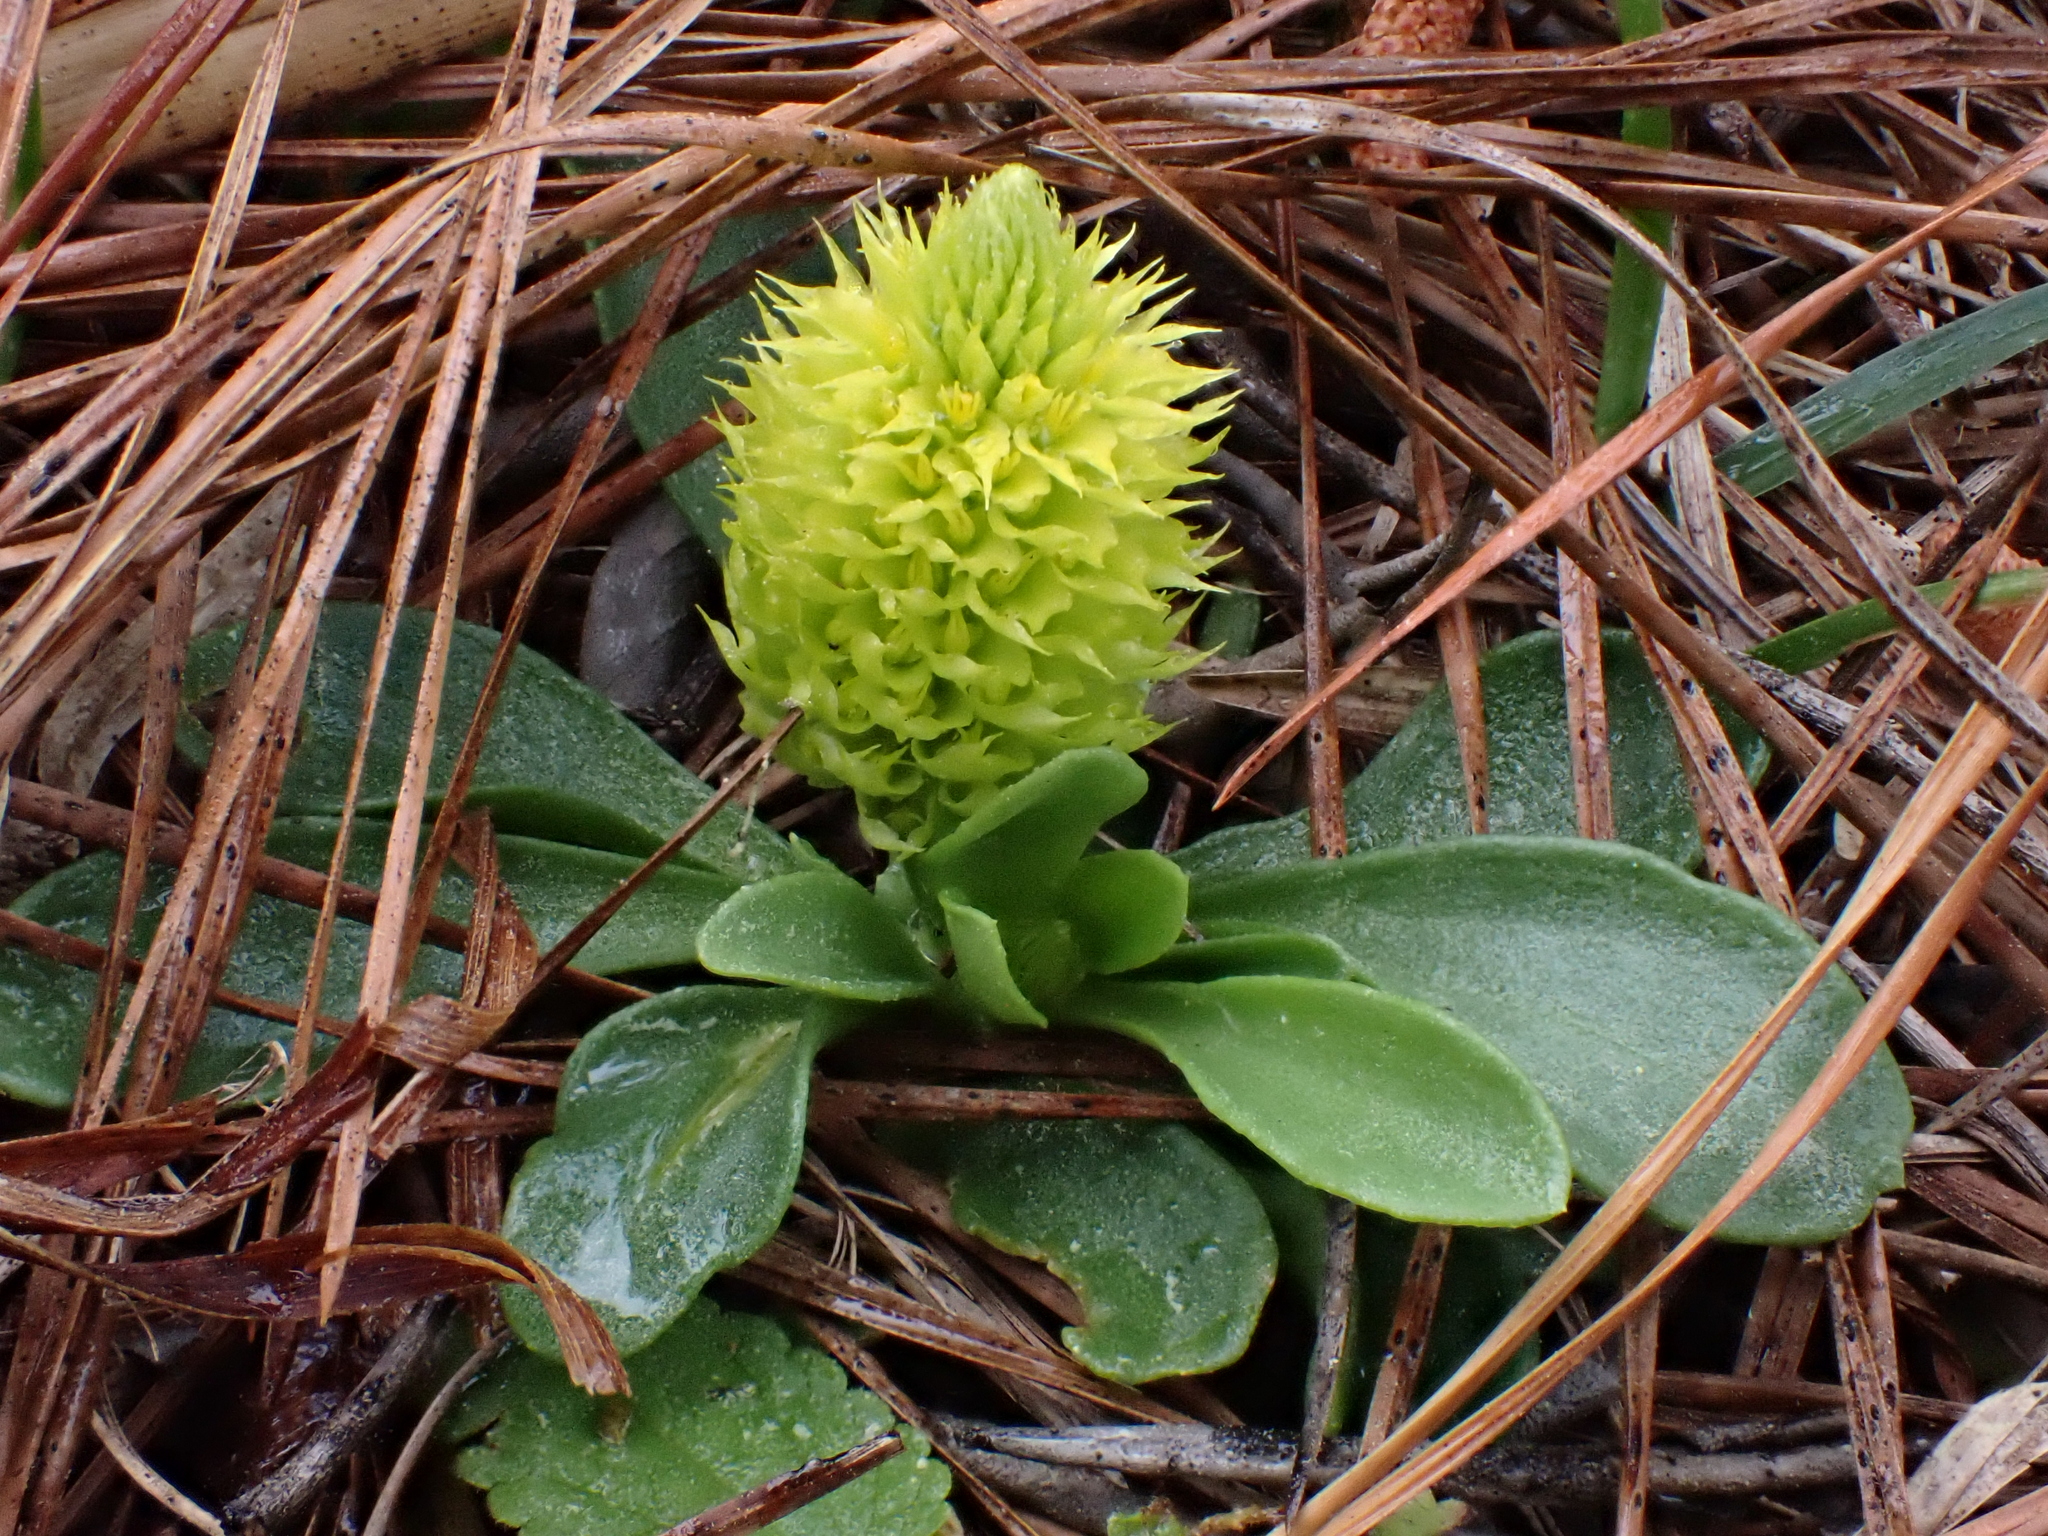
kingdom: Plantae
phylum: Tracheophyta
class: Magnoliopsida
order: Fabales
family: Polygalaceae
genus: Polygala
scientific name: Polygala nana
